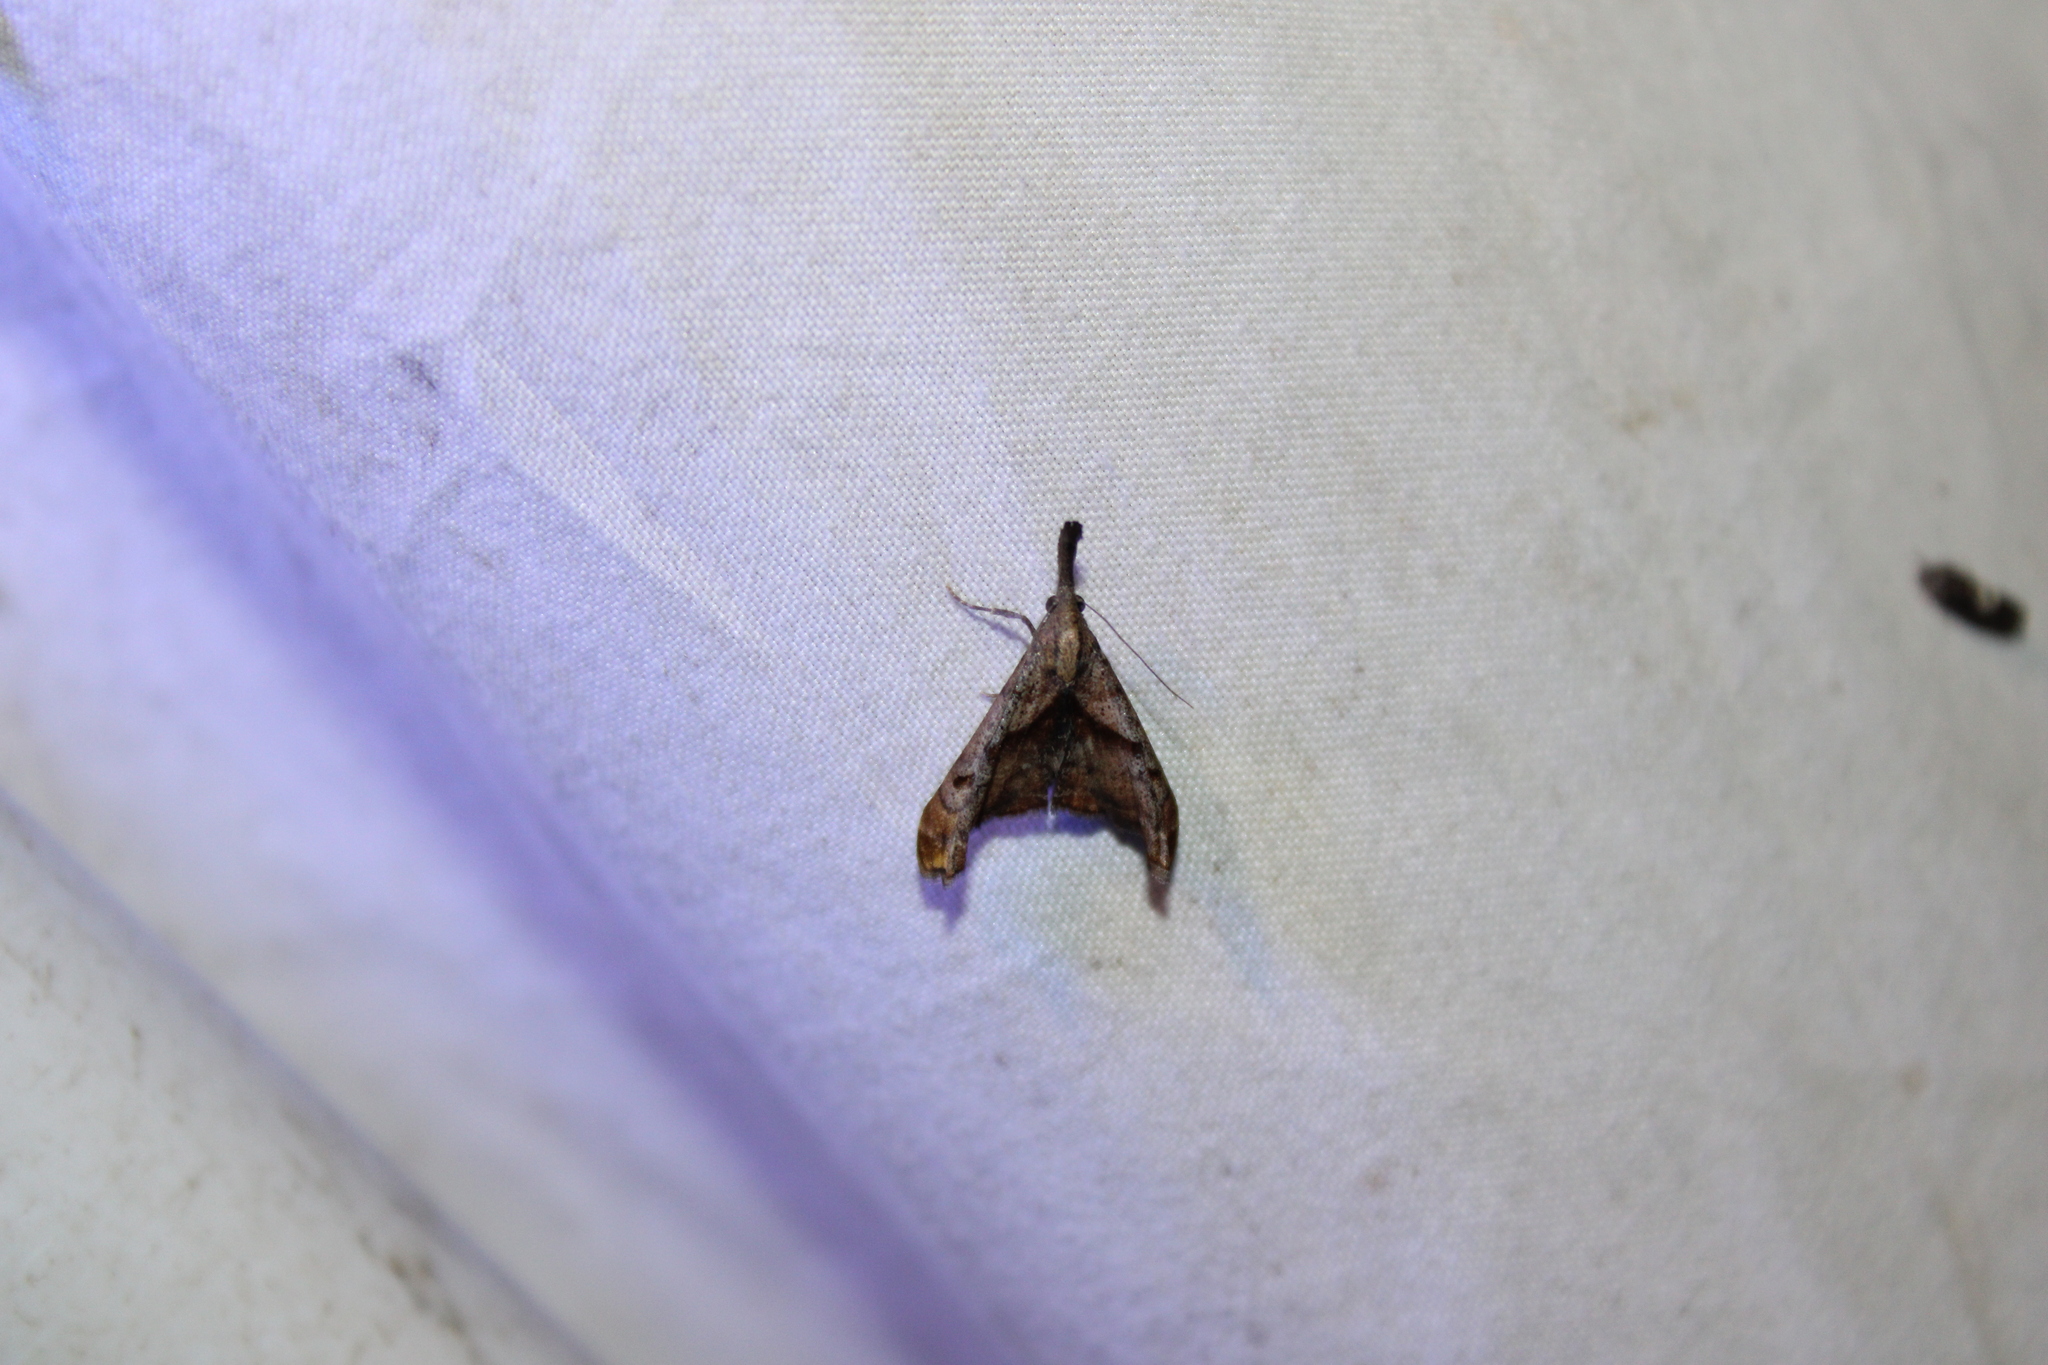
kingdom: Animalia
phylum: Arthropoda
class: Insecta
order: Lepidoptera
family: Erebidae
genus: Palthis
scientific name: Palthis angulalis
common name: Dark-spotted palthis moth
